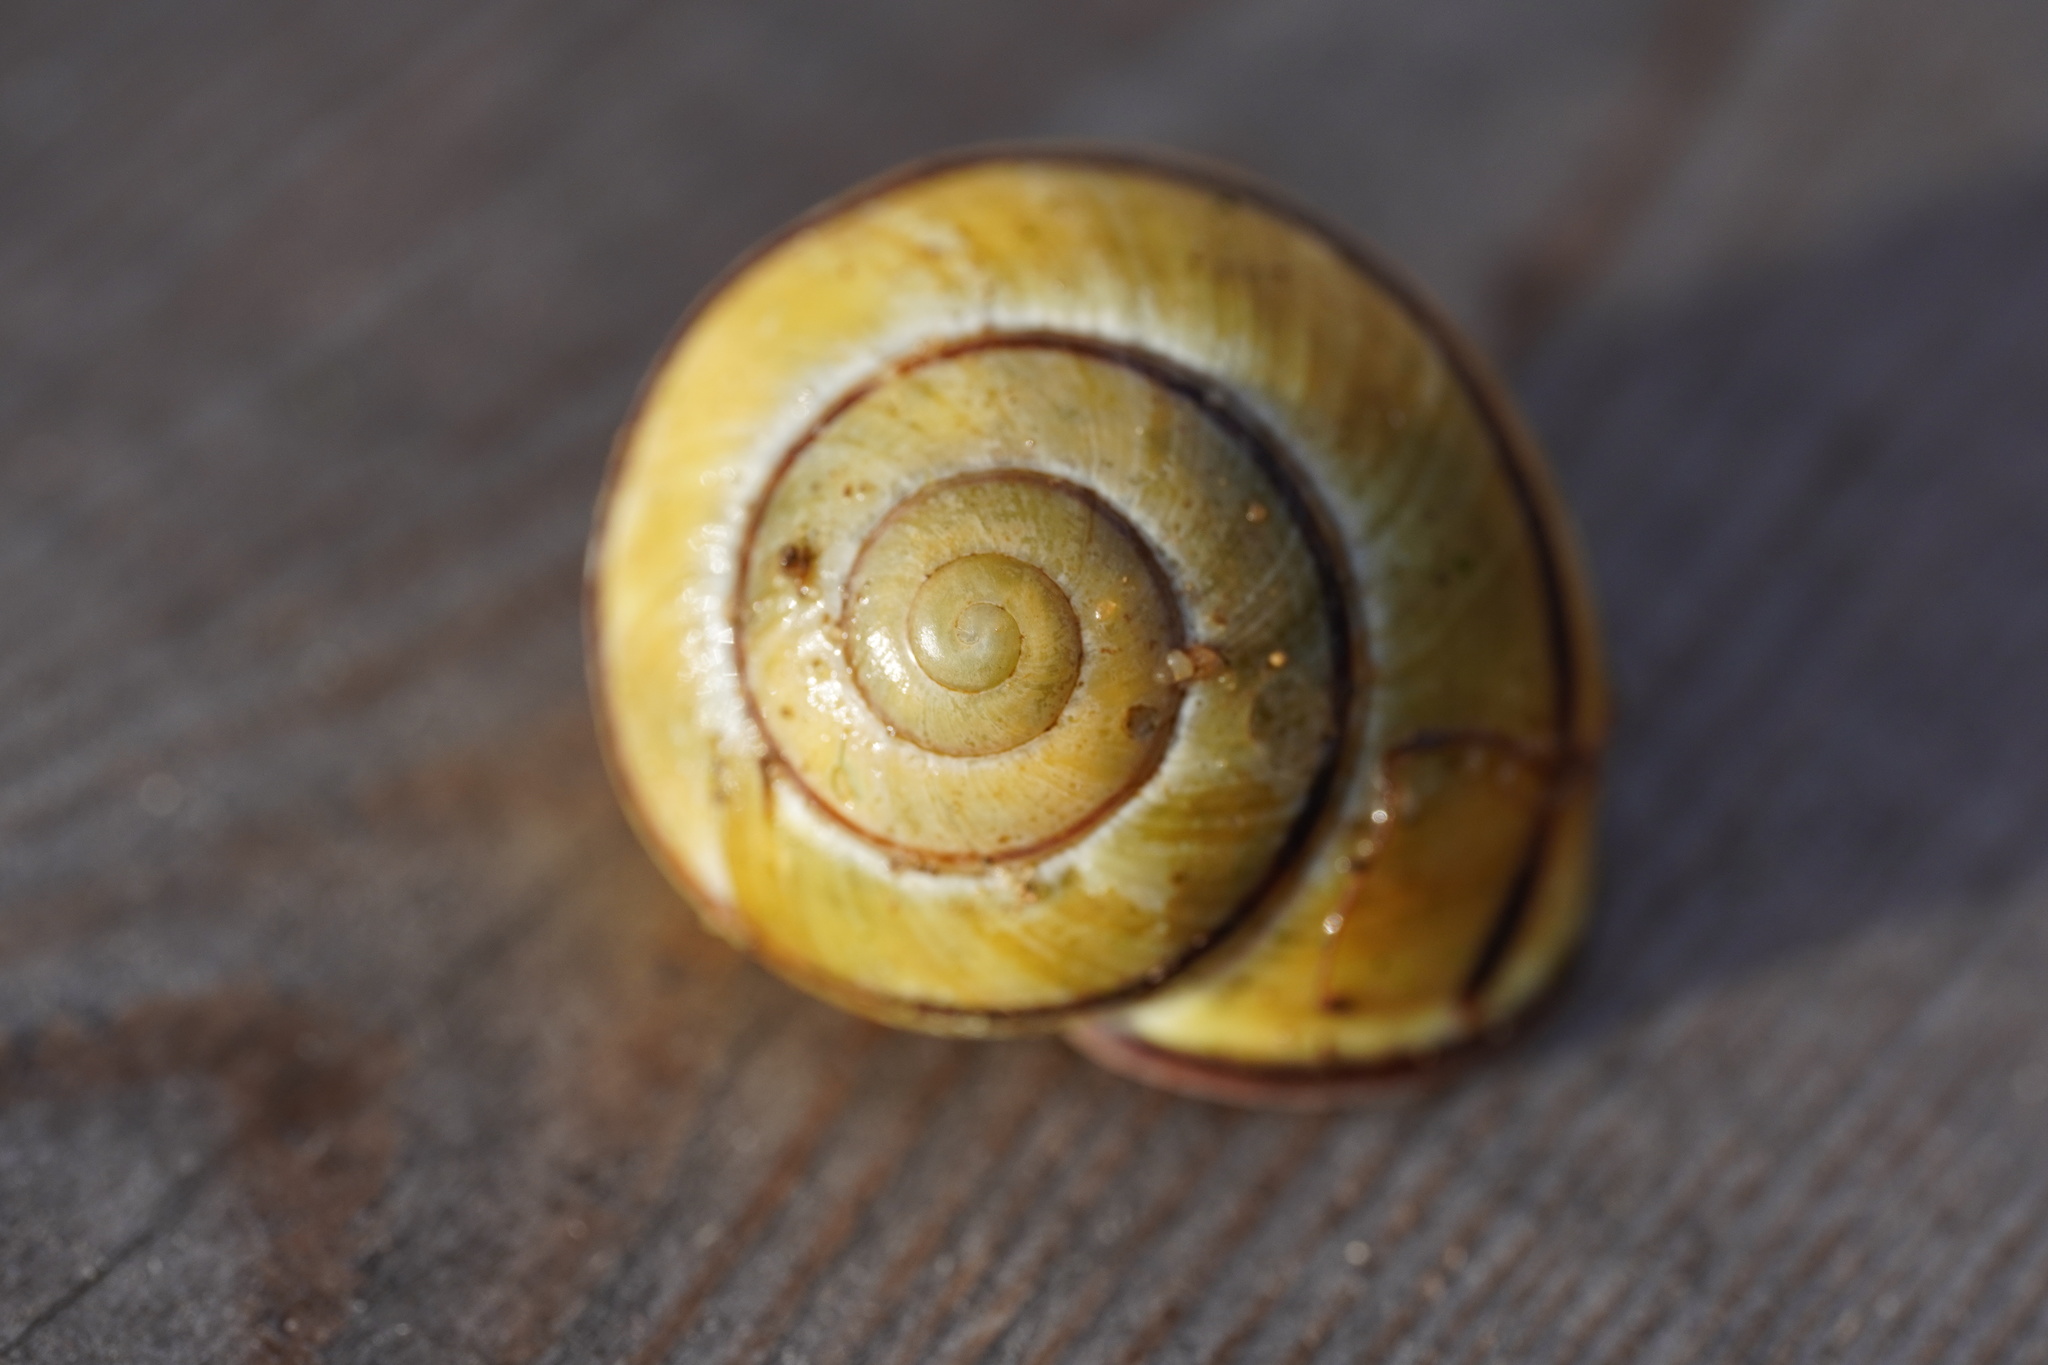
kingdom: Animalia
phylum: Mollusca
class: Gastropoda
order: Stylommatophora
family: Helicidae
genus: Cepaea
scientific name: Cepaea nemoralis
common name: Grovesnail
